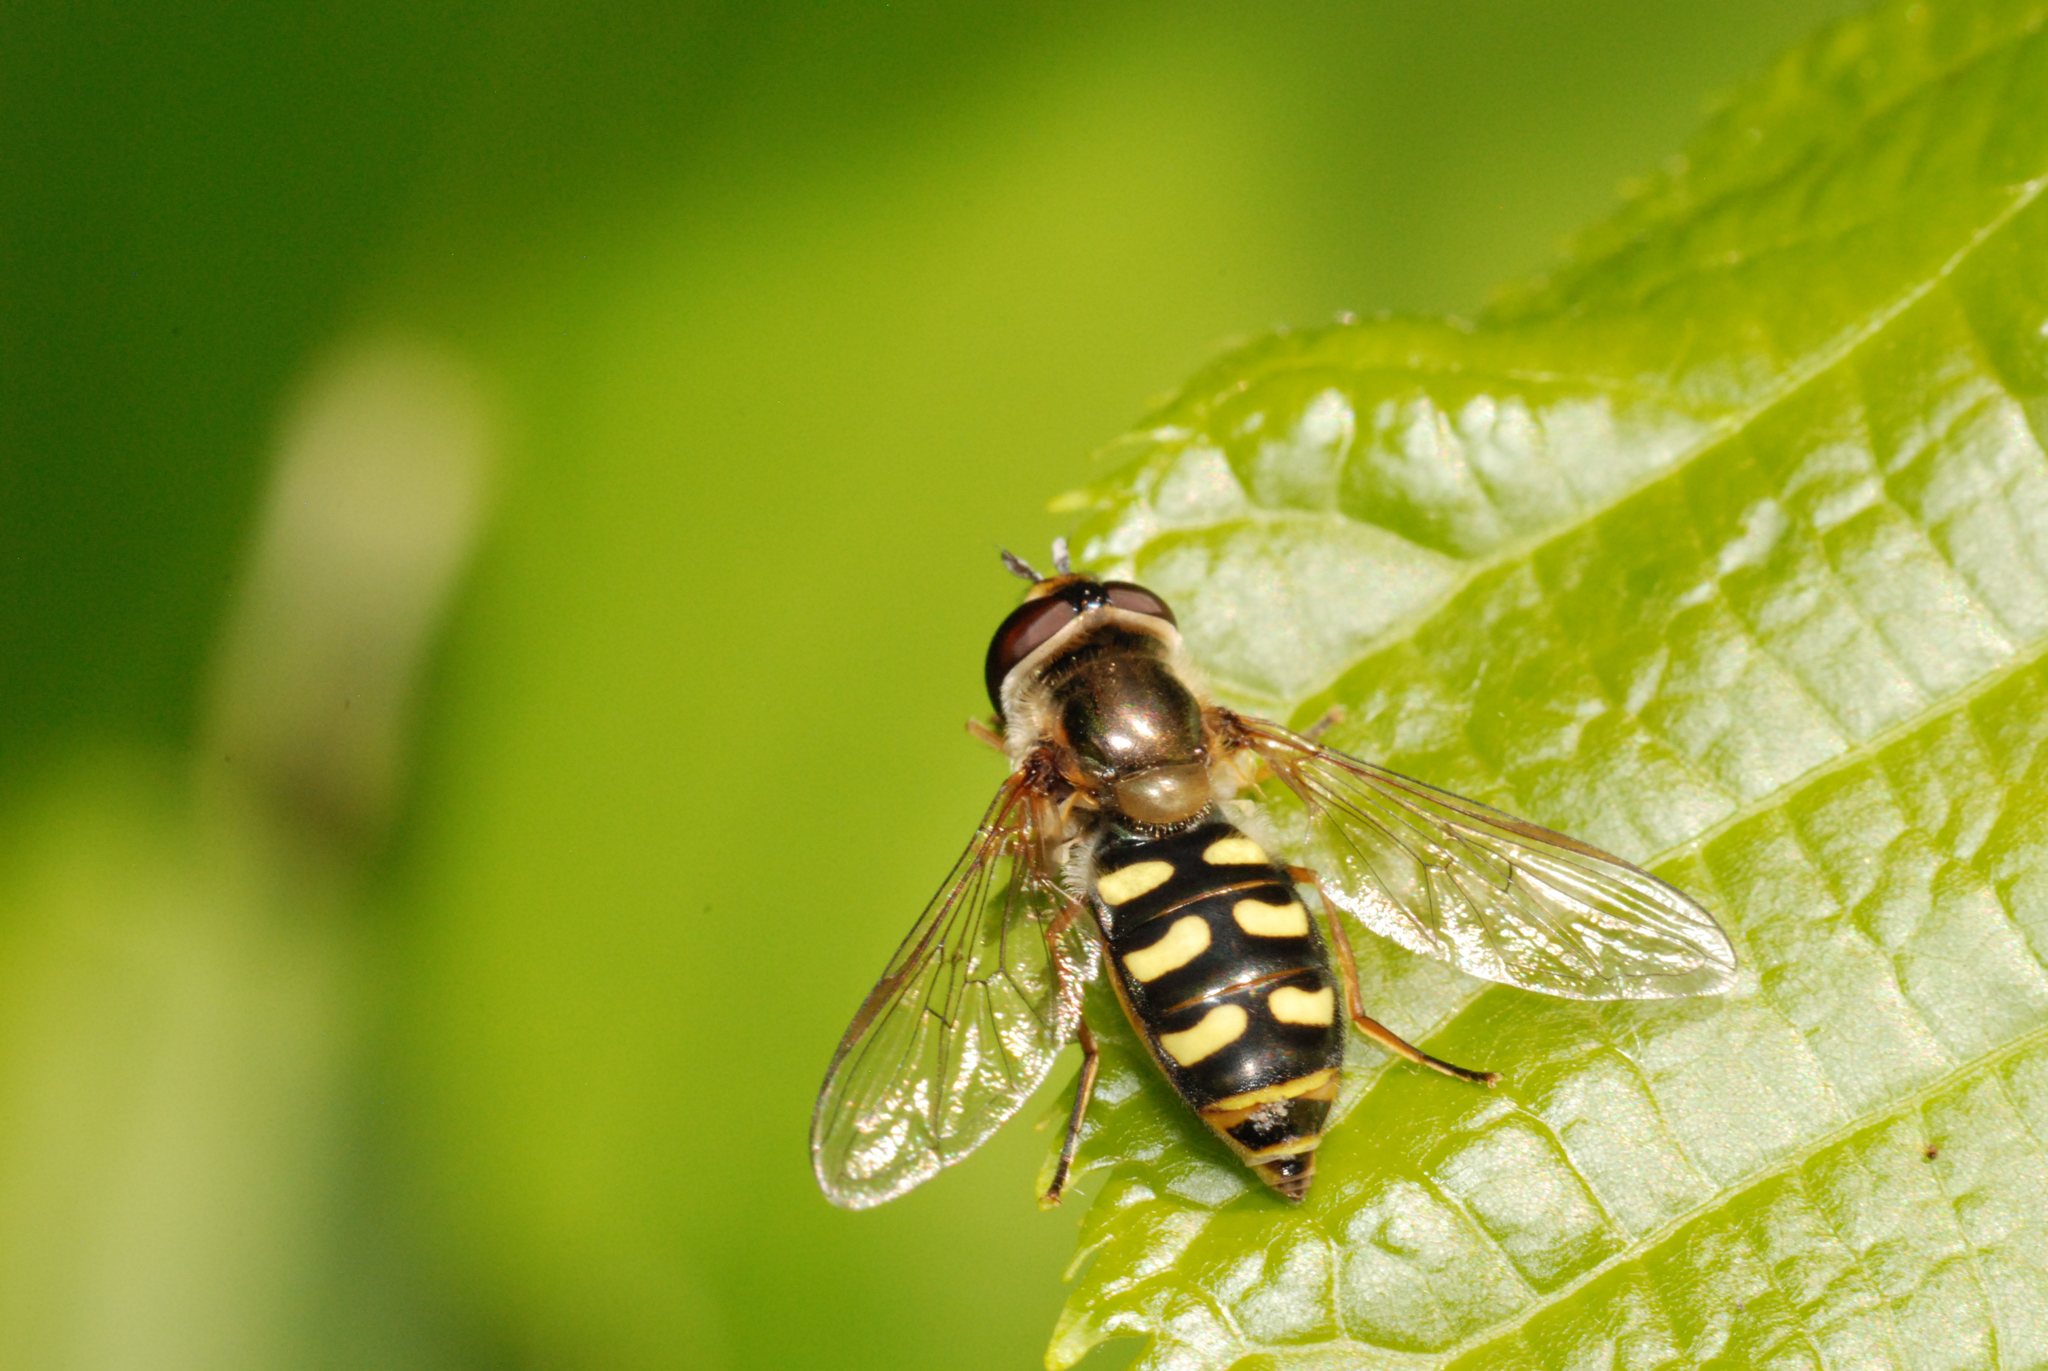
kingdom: Animalia
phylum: Arthropoda
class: Insecta
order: Diptera
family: Syrphidae
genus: Eupeodes
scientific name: Eupeodes
